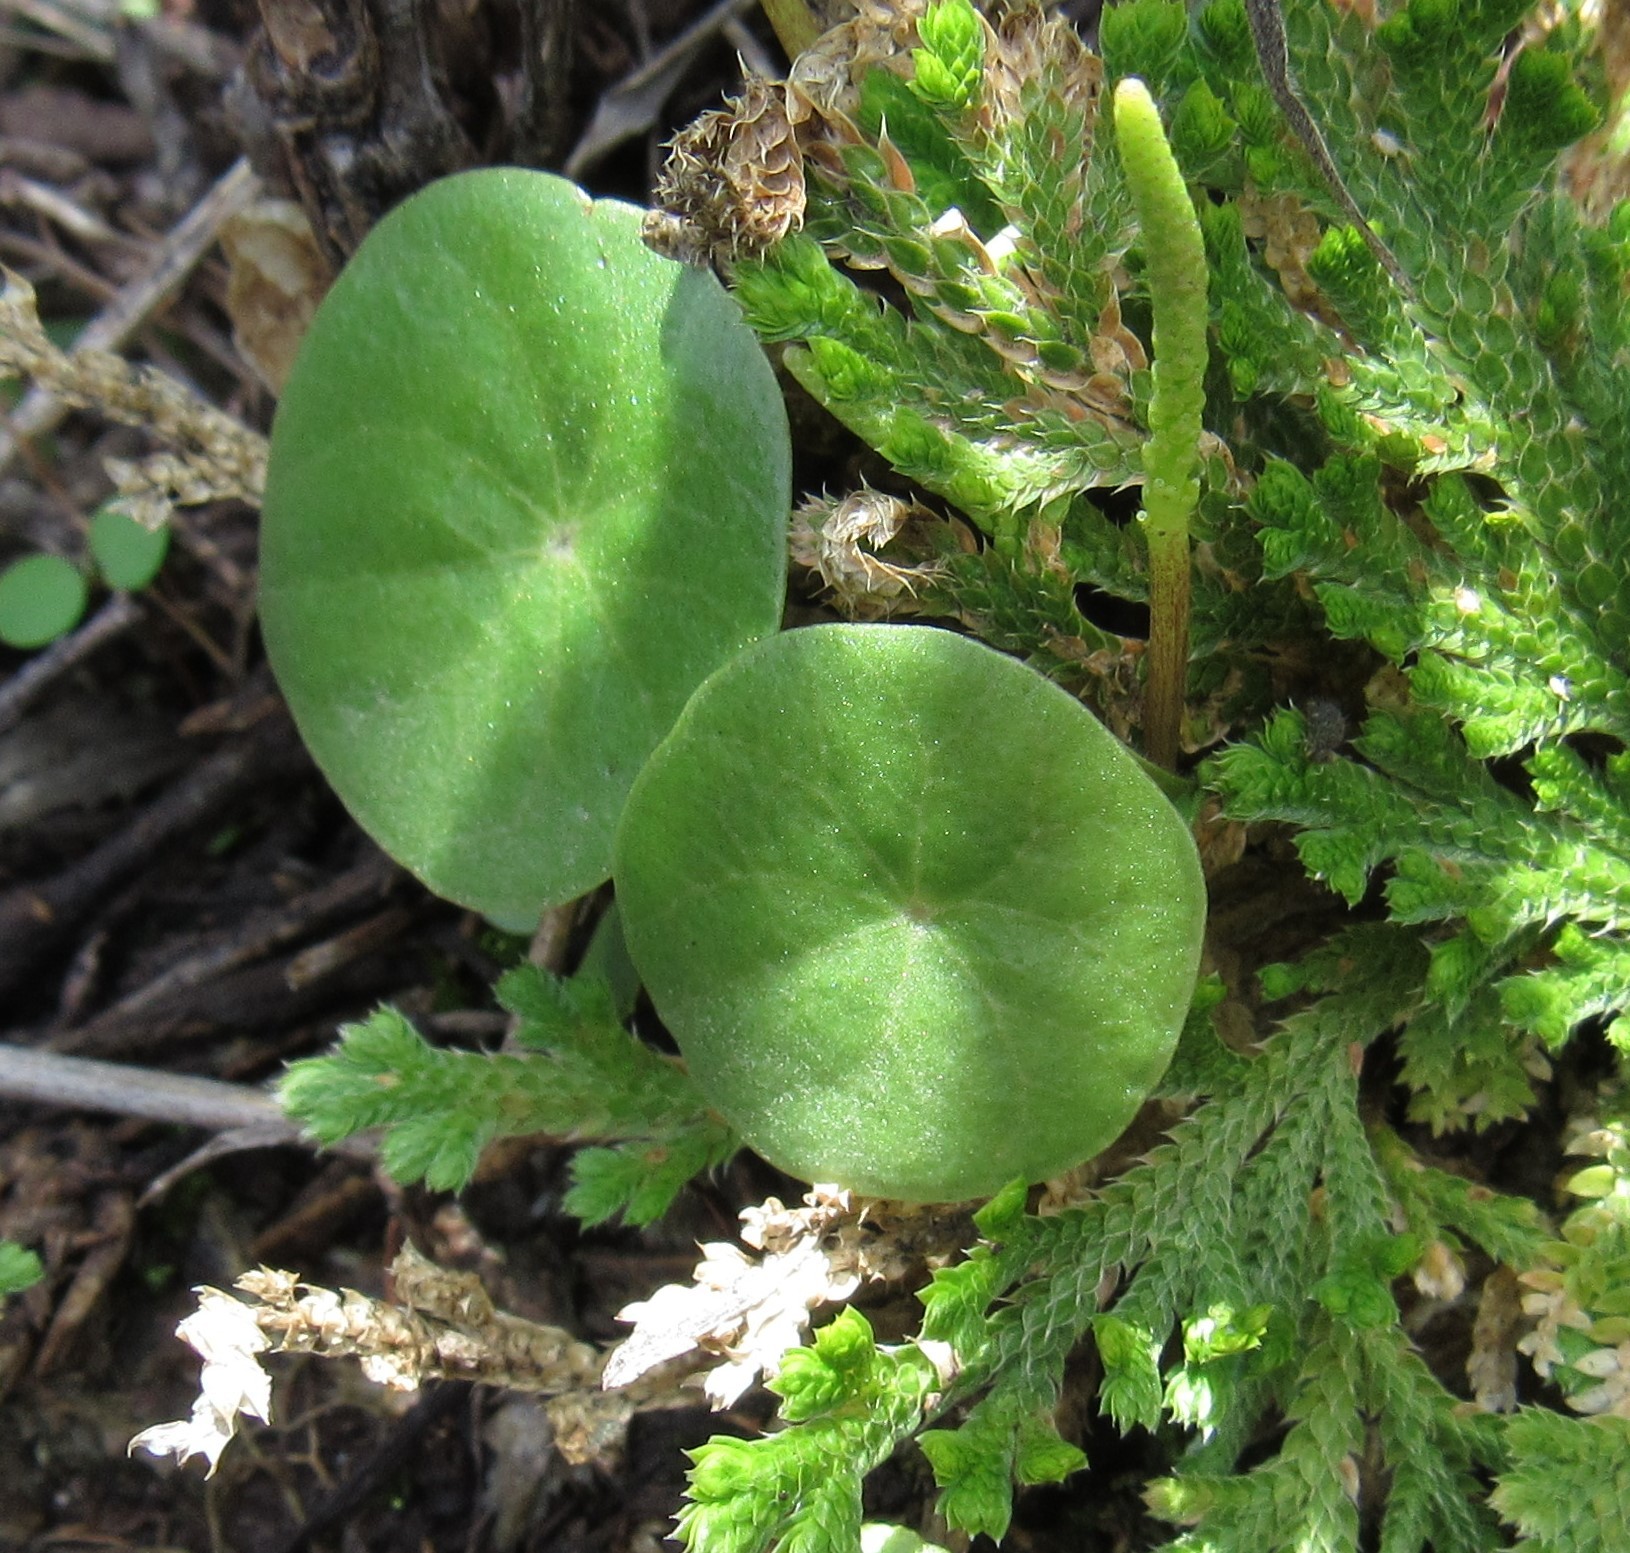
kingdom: Plantae
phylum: Tracheophyta
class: Magnoliopsida
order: Piperales
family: Piperaceae
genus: Peperomia
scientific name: Peperomia monticola
